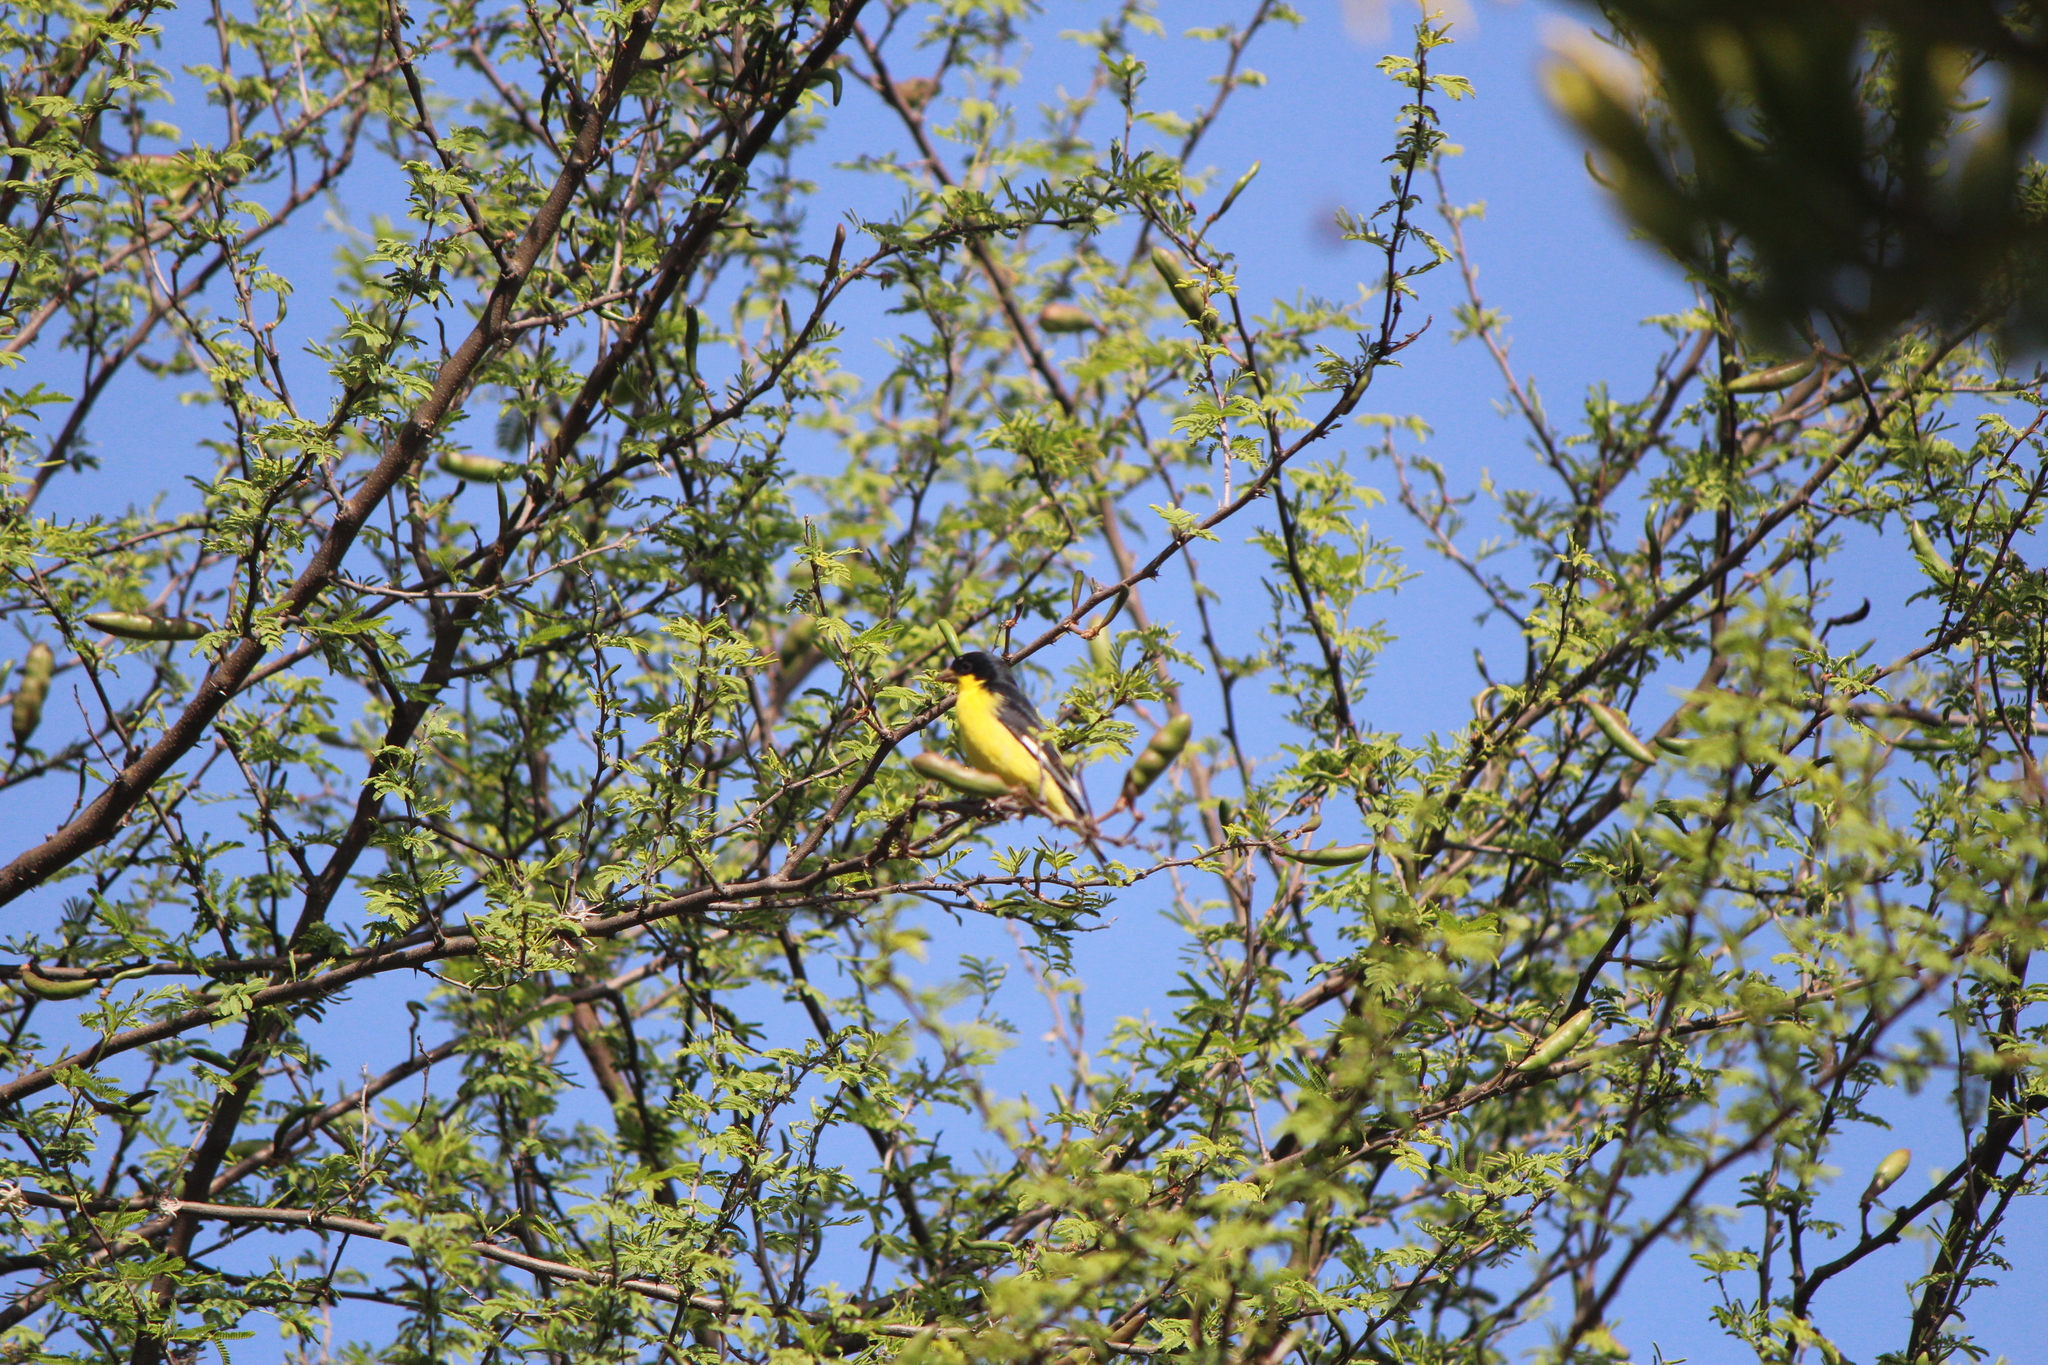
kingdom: Animalia
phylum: Chordata
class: Aves
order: Passeriformes
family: Fringillidae
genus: Spinus
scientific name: Spinus psaltria
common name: Lesser goldfinch
